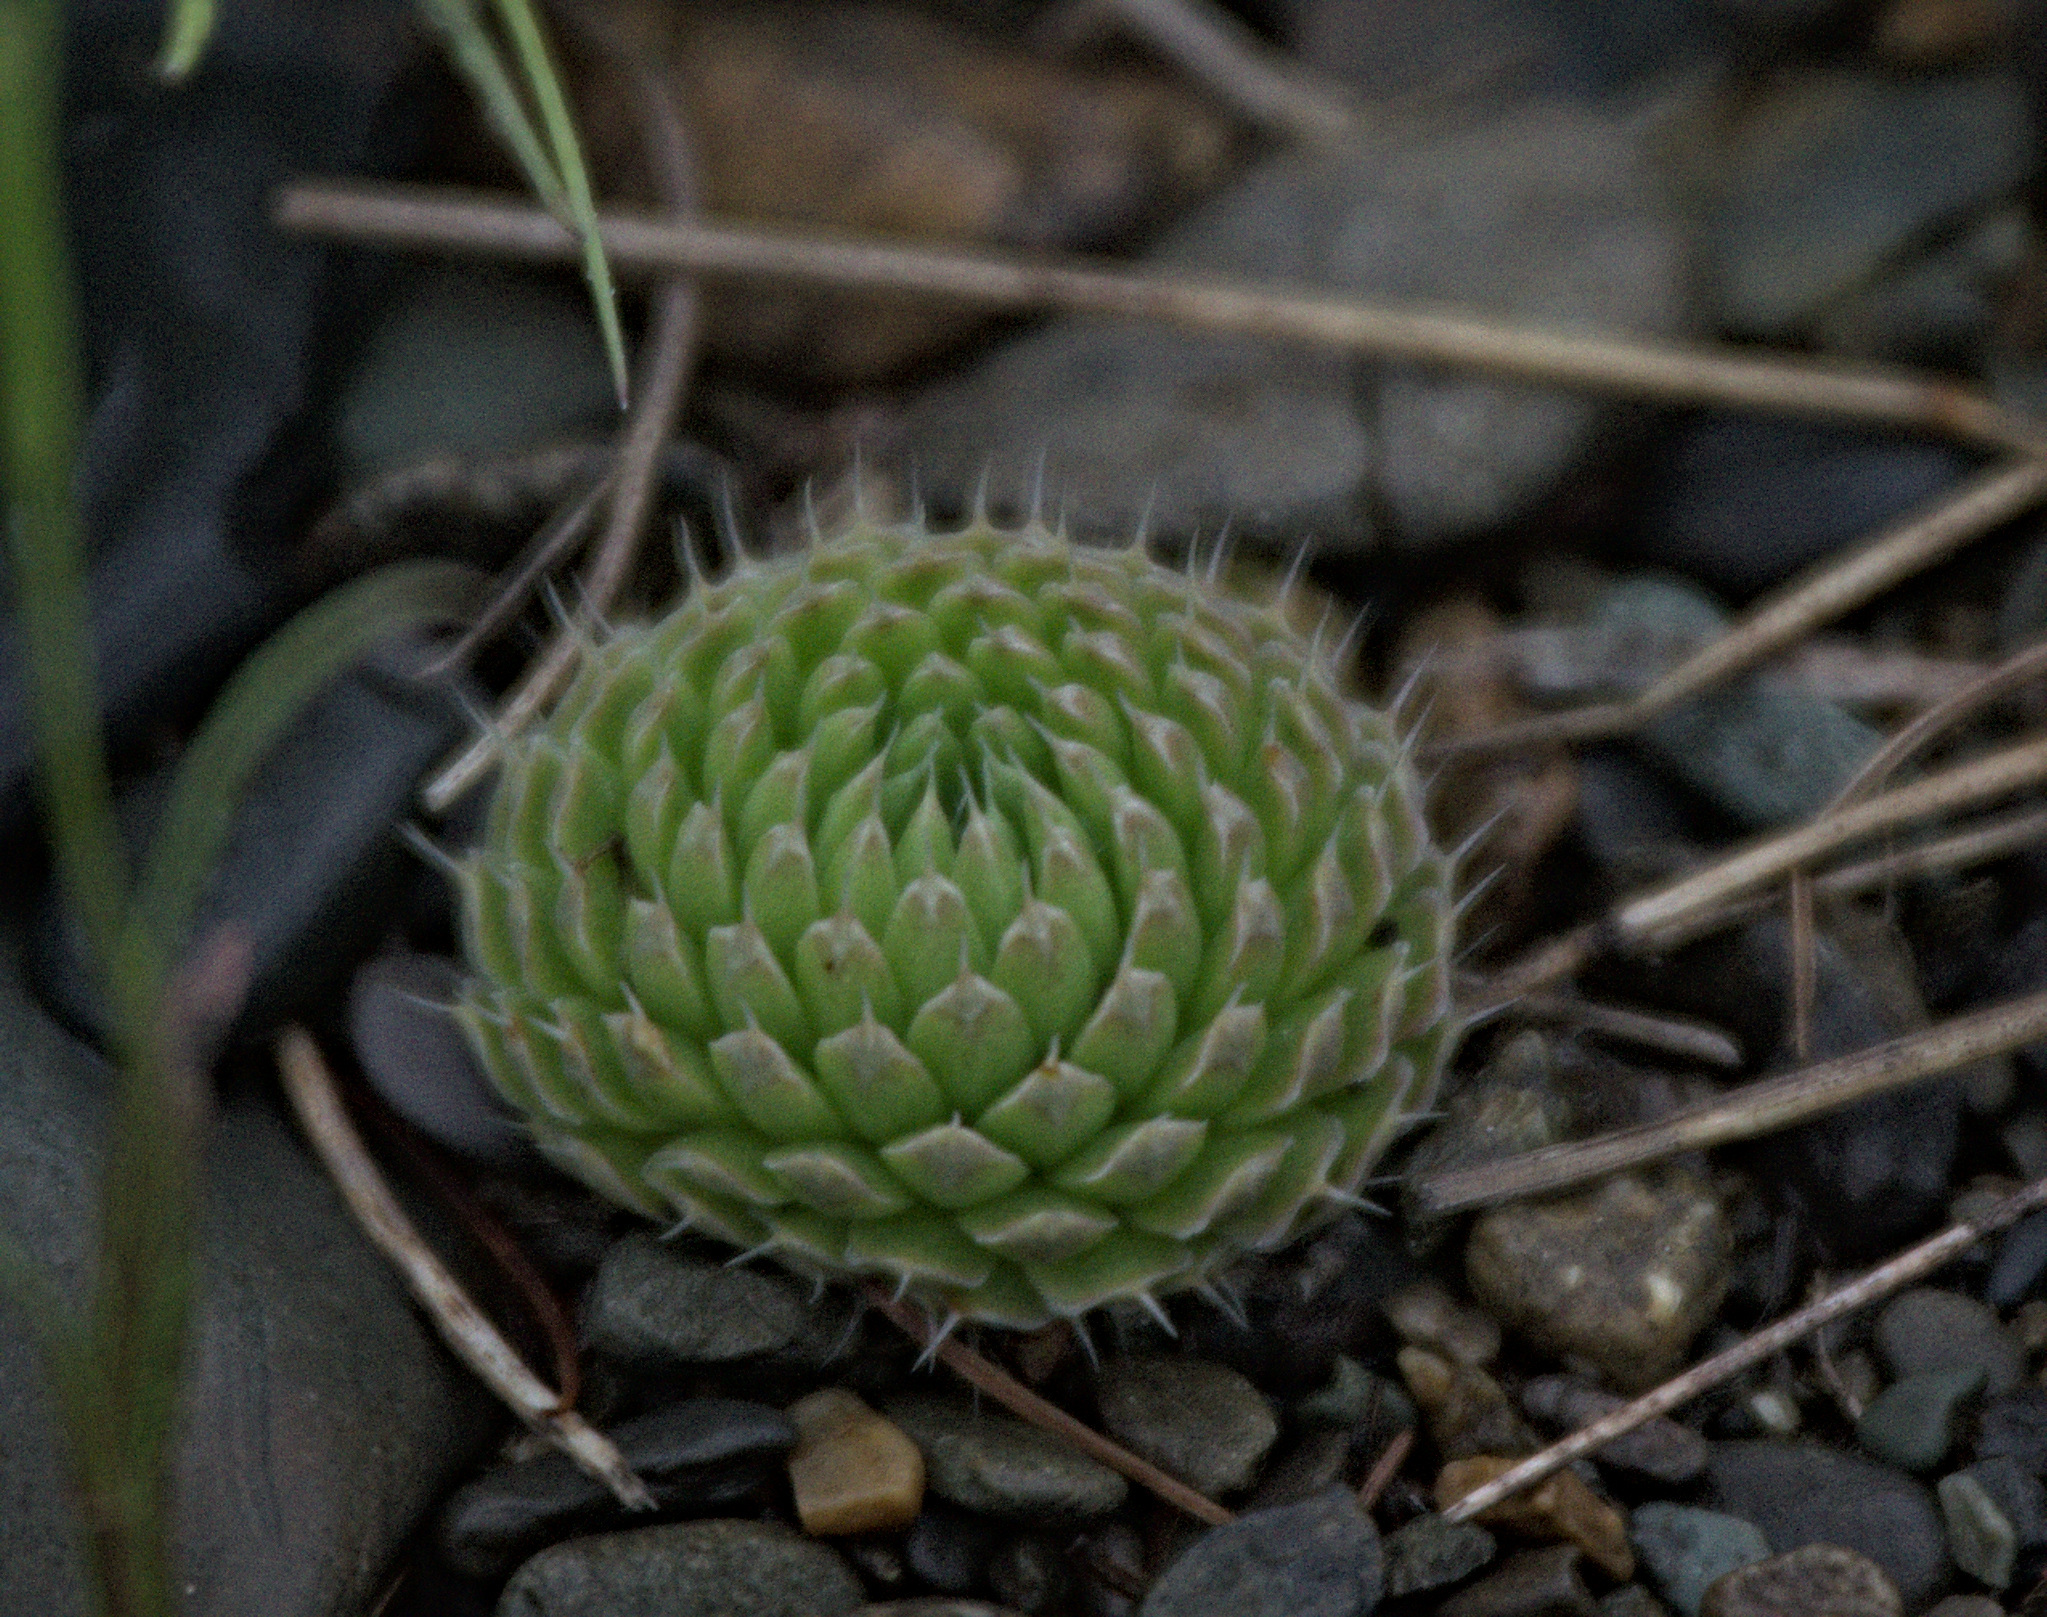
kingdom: Plantae
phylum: Tracheophyta
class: Magnoliopsida
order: Saxifragales
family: Crassulaceae
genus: Orostachys
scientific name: Orostachys spinosa
